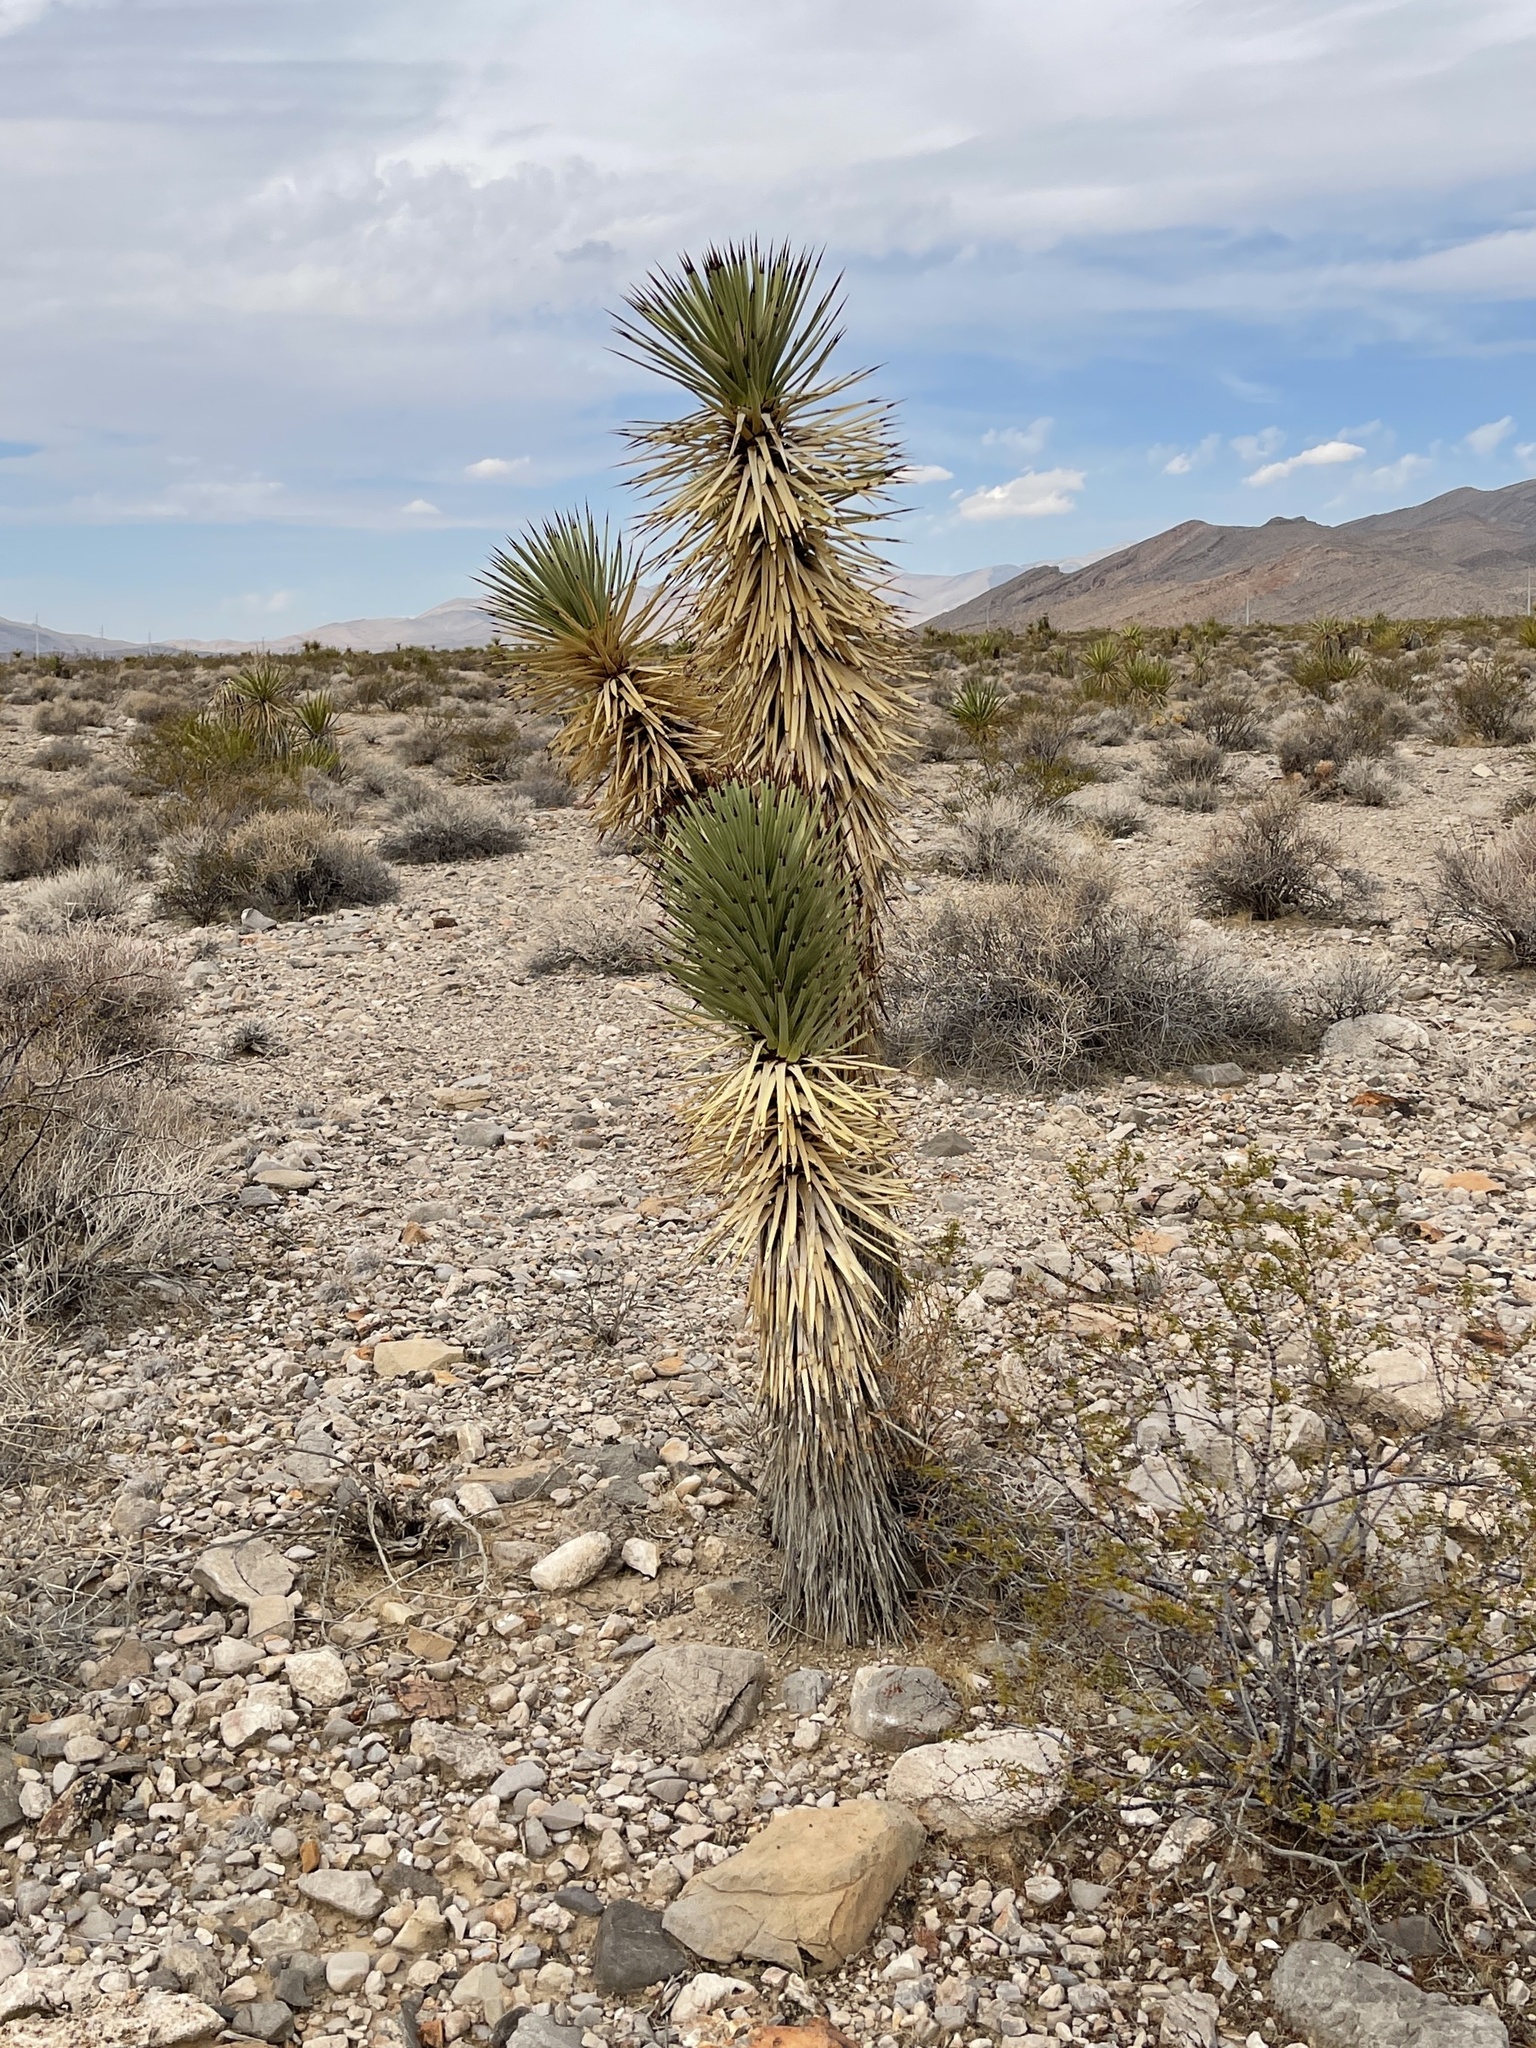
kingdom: Plantae
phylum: Tracheophyta
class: Liliopsida
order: Asparagales
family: Asparagaceae
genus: Yucca
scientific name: Yucca brevifolia
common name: Joshua tree
